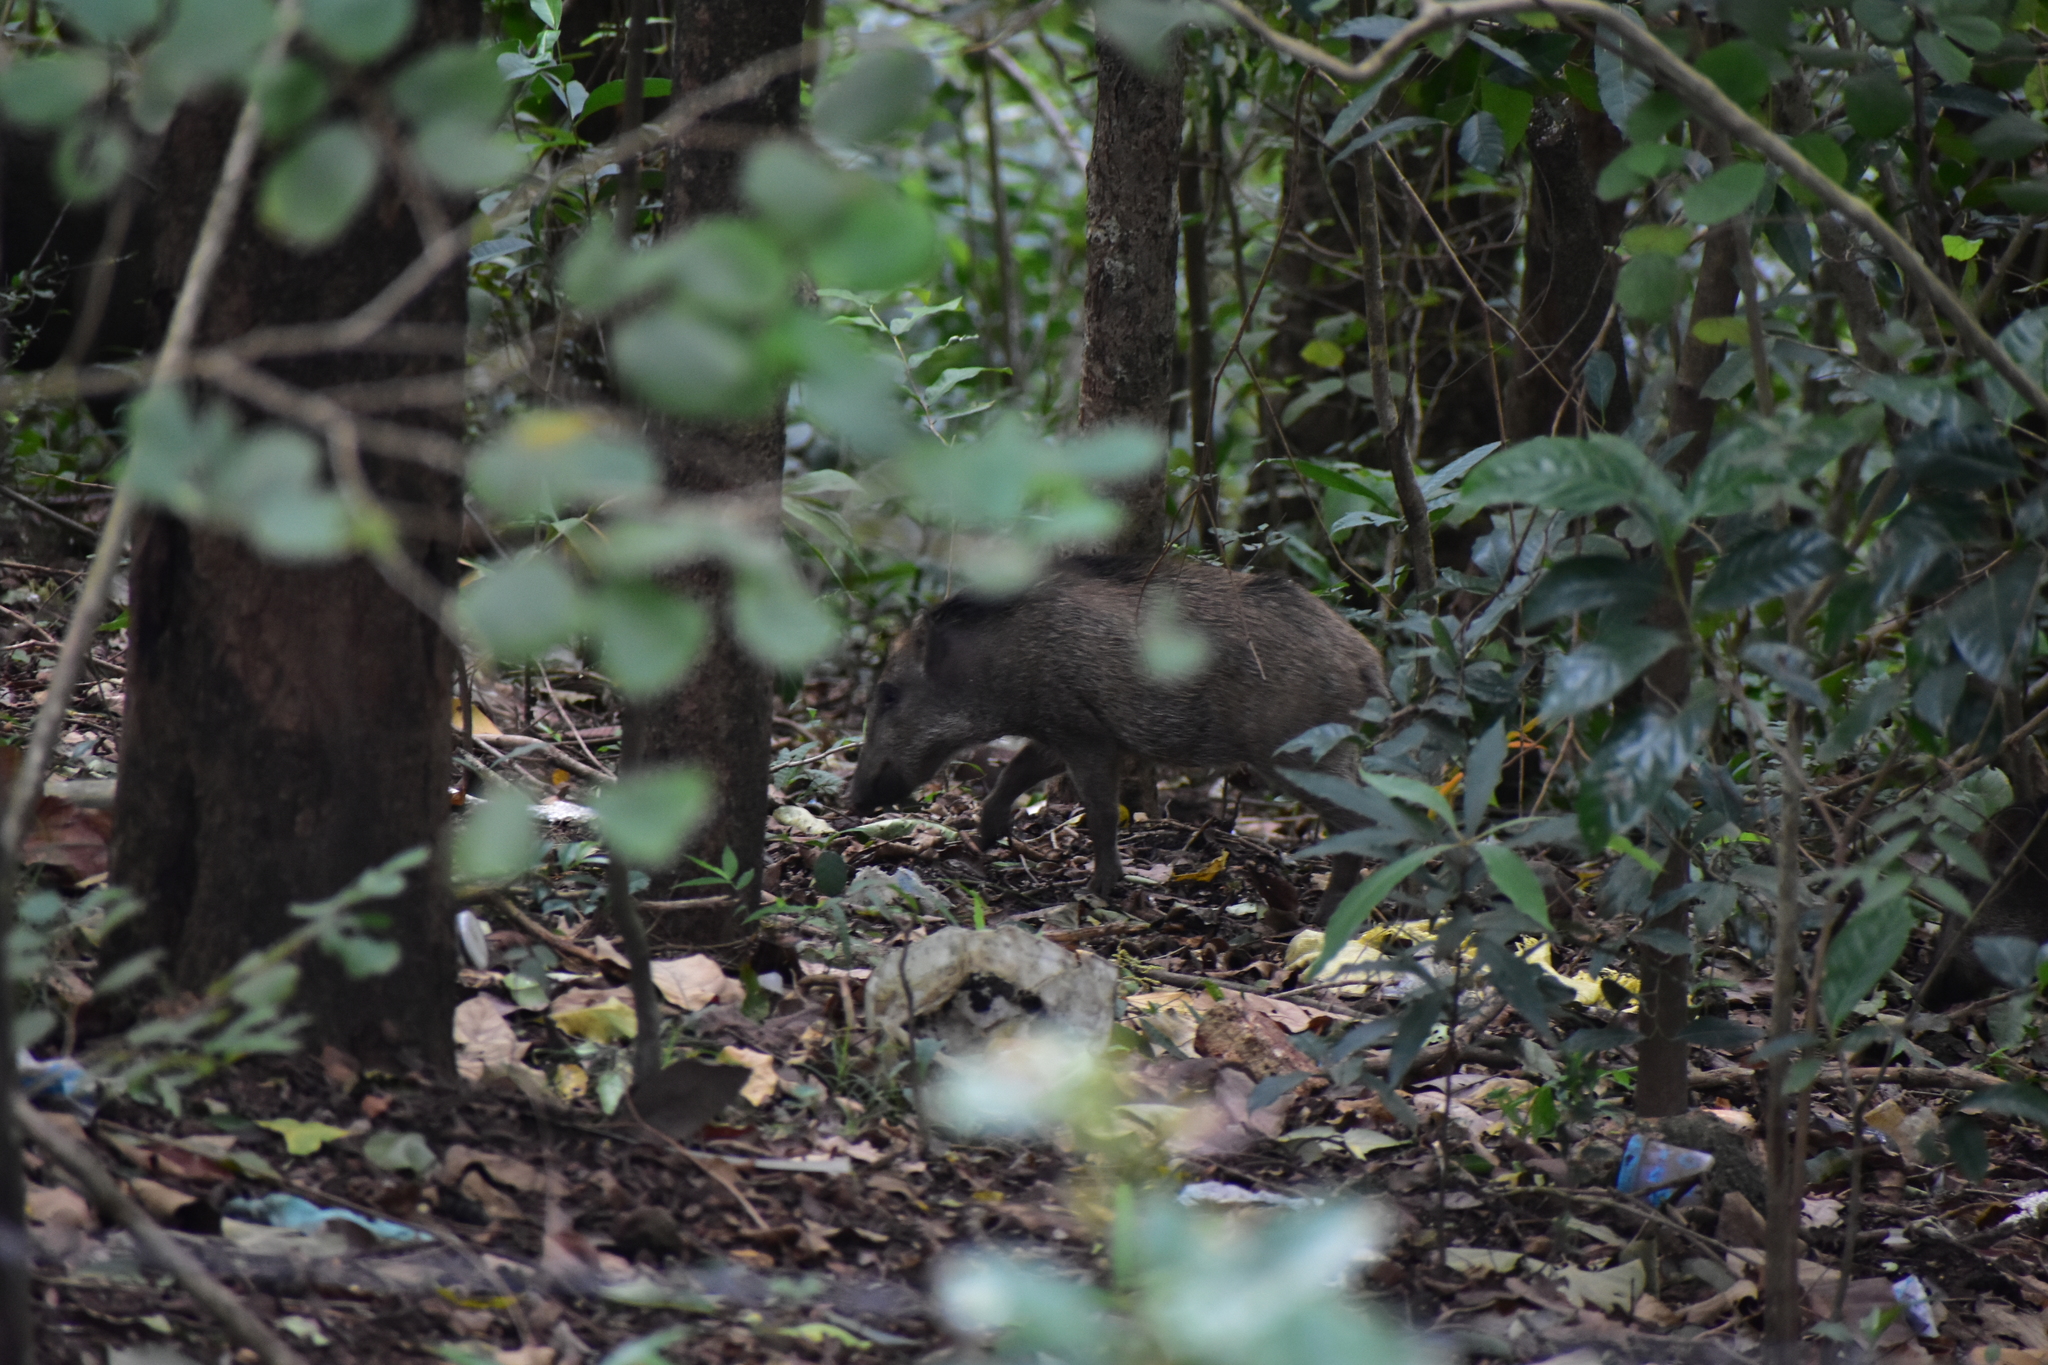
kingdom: Animalia
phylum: Chordata
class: Mammalia
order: Artiodactyla
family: Suidae
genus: Sus
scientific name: Sus scrofa
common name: Wild boar
